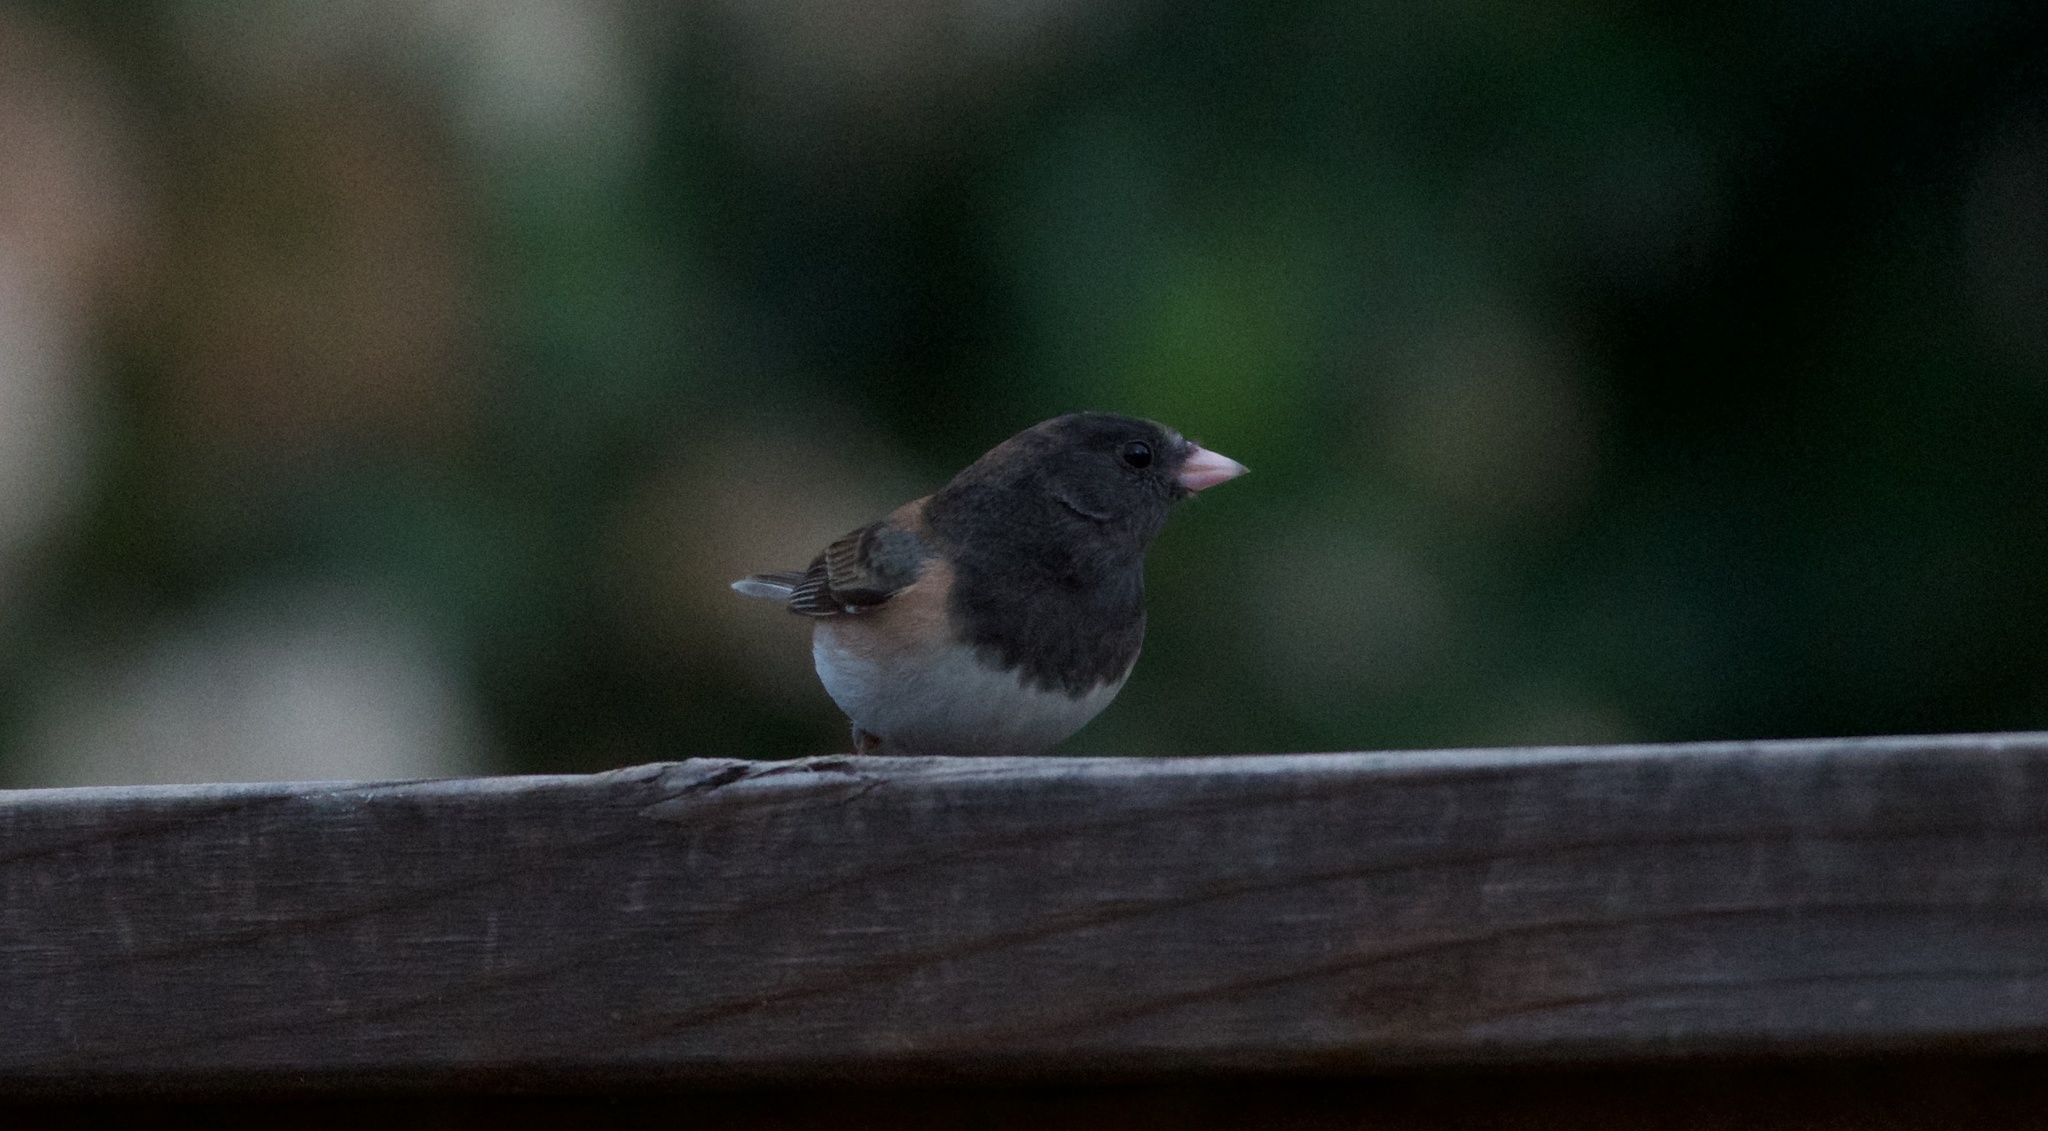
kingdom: Animalia
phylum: Chordata
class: Aves
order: Passeriformes
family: Passerellidae
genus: Junco
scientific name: Junco hyemalis
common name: Dark-eyed junco
